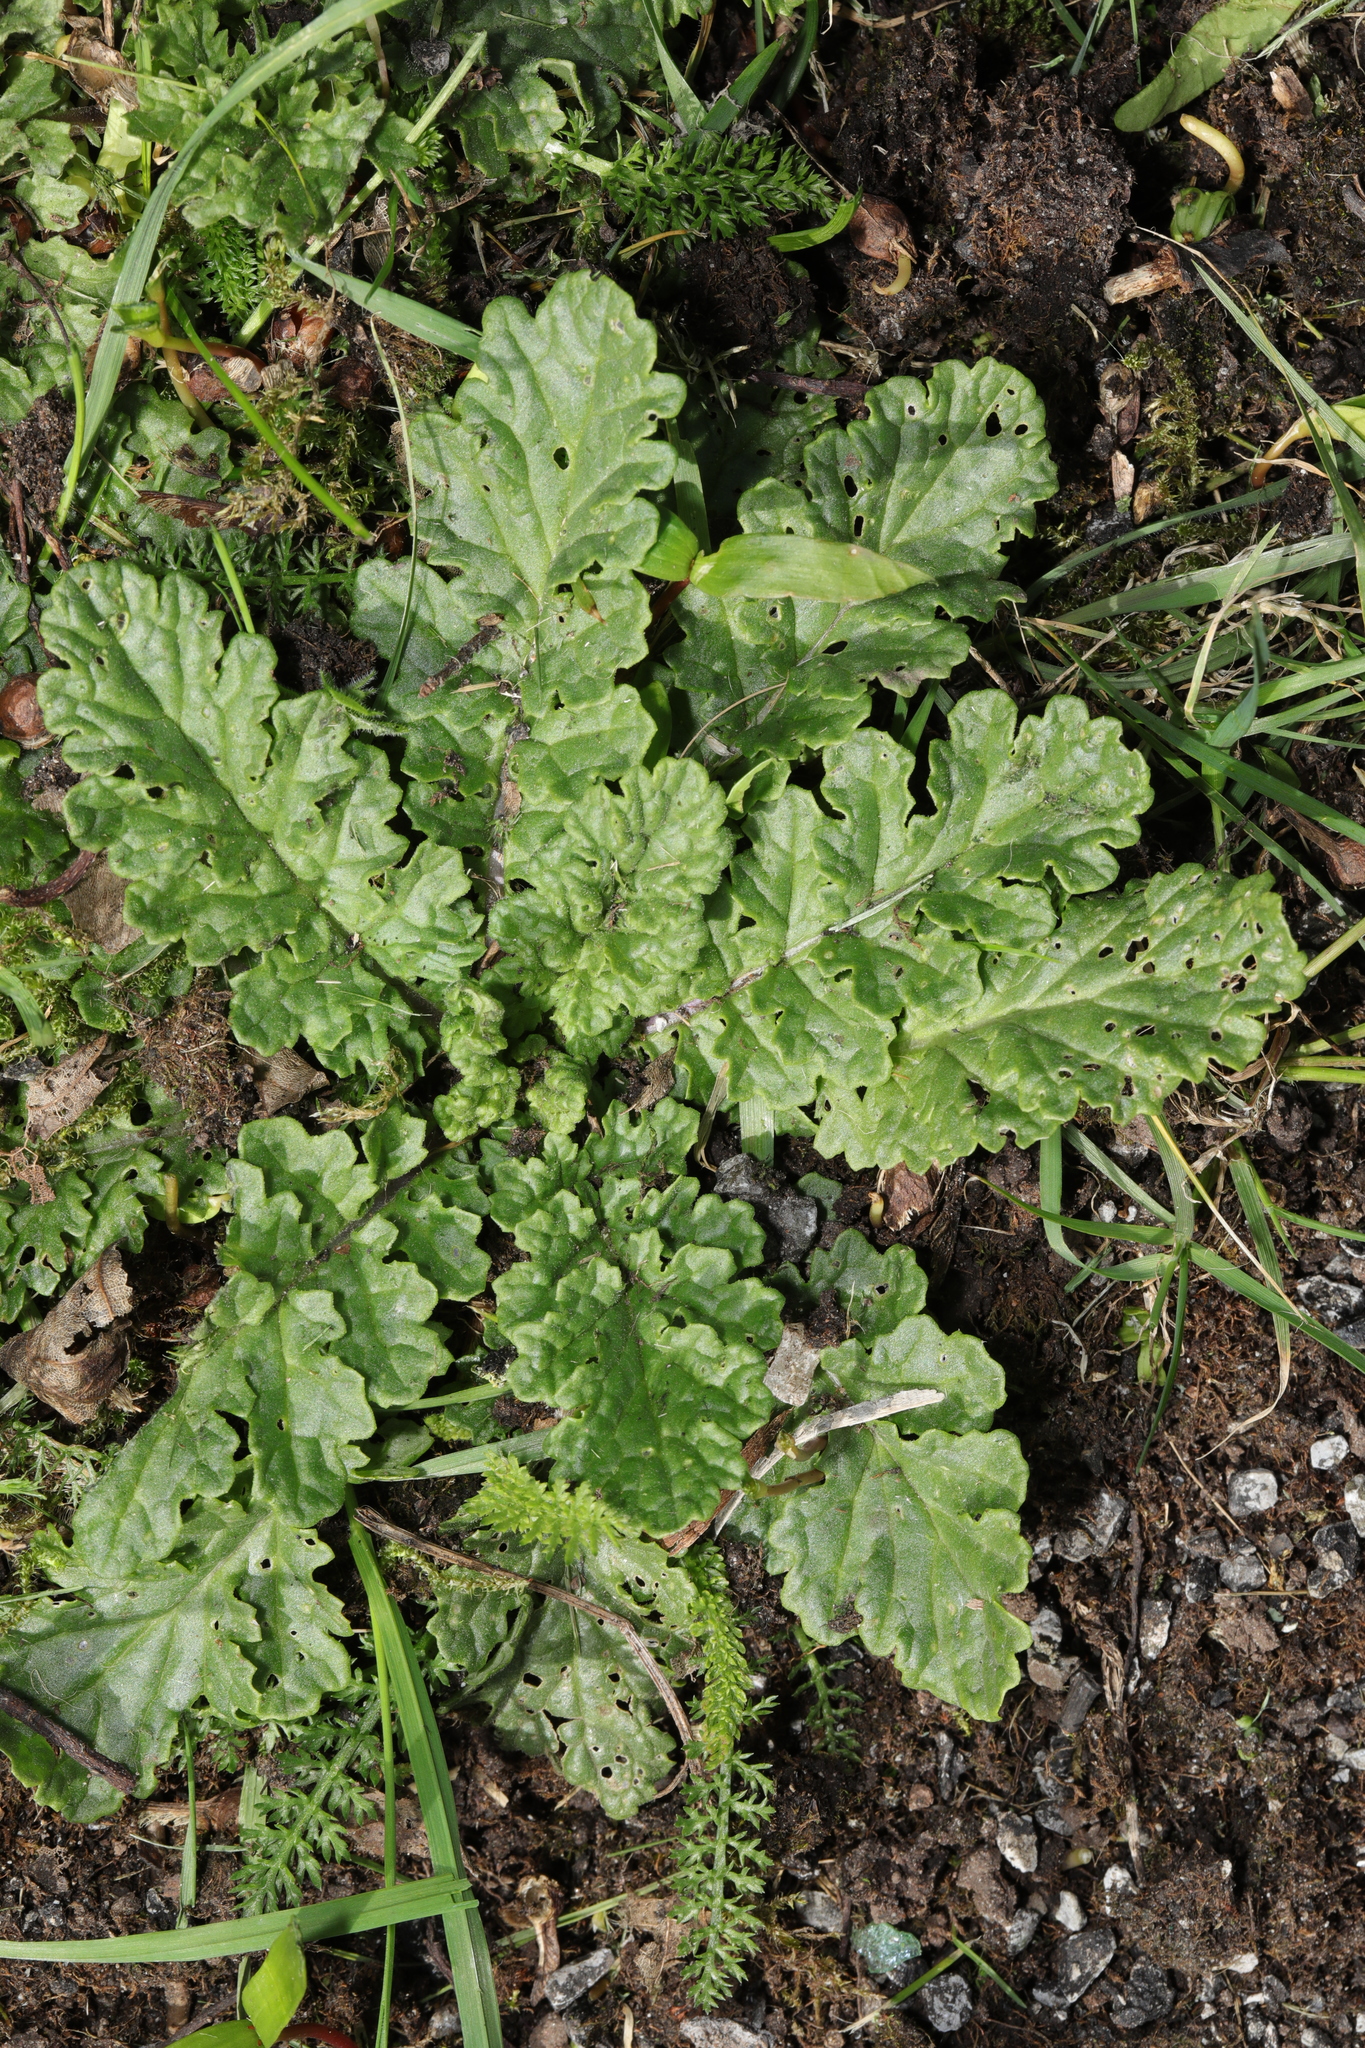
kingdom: Plantae
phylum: Tracheophyta
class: Magnoliopsida
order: Asterales
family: Asteraceae
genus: Jacobaea
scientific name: Jacobaea vulgaris
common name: Stinking willie
